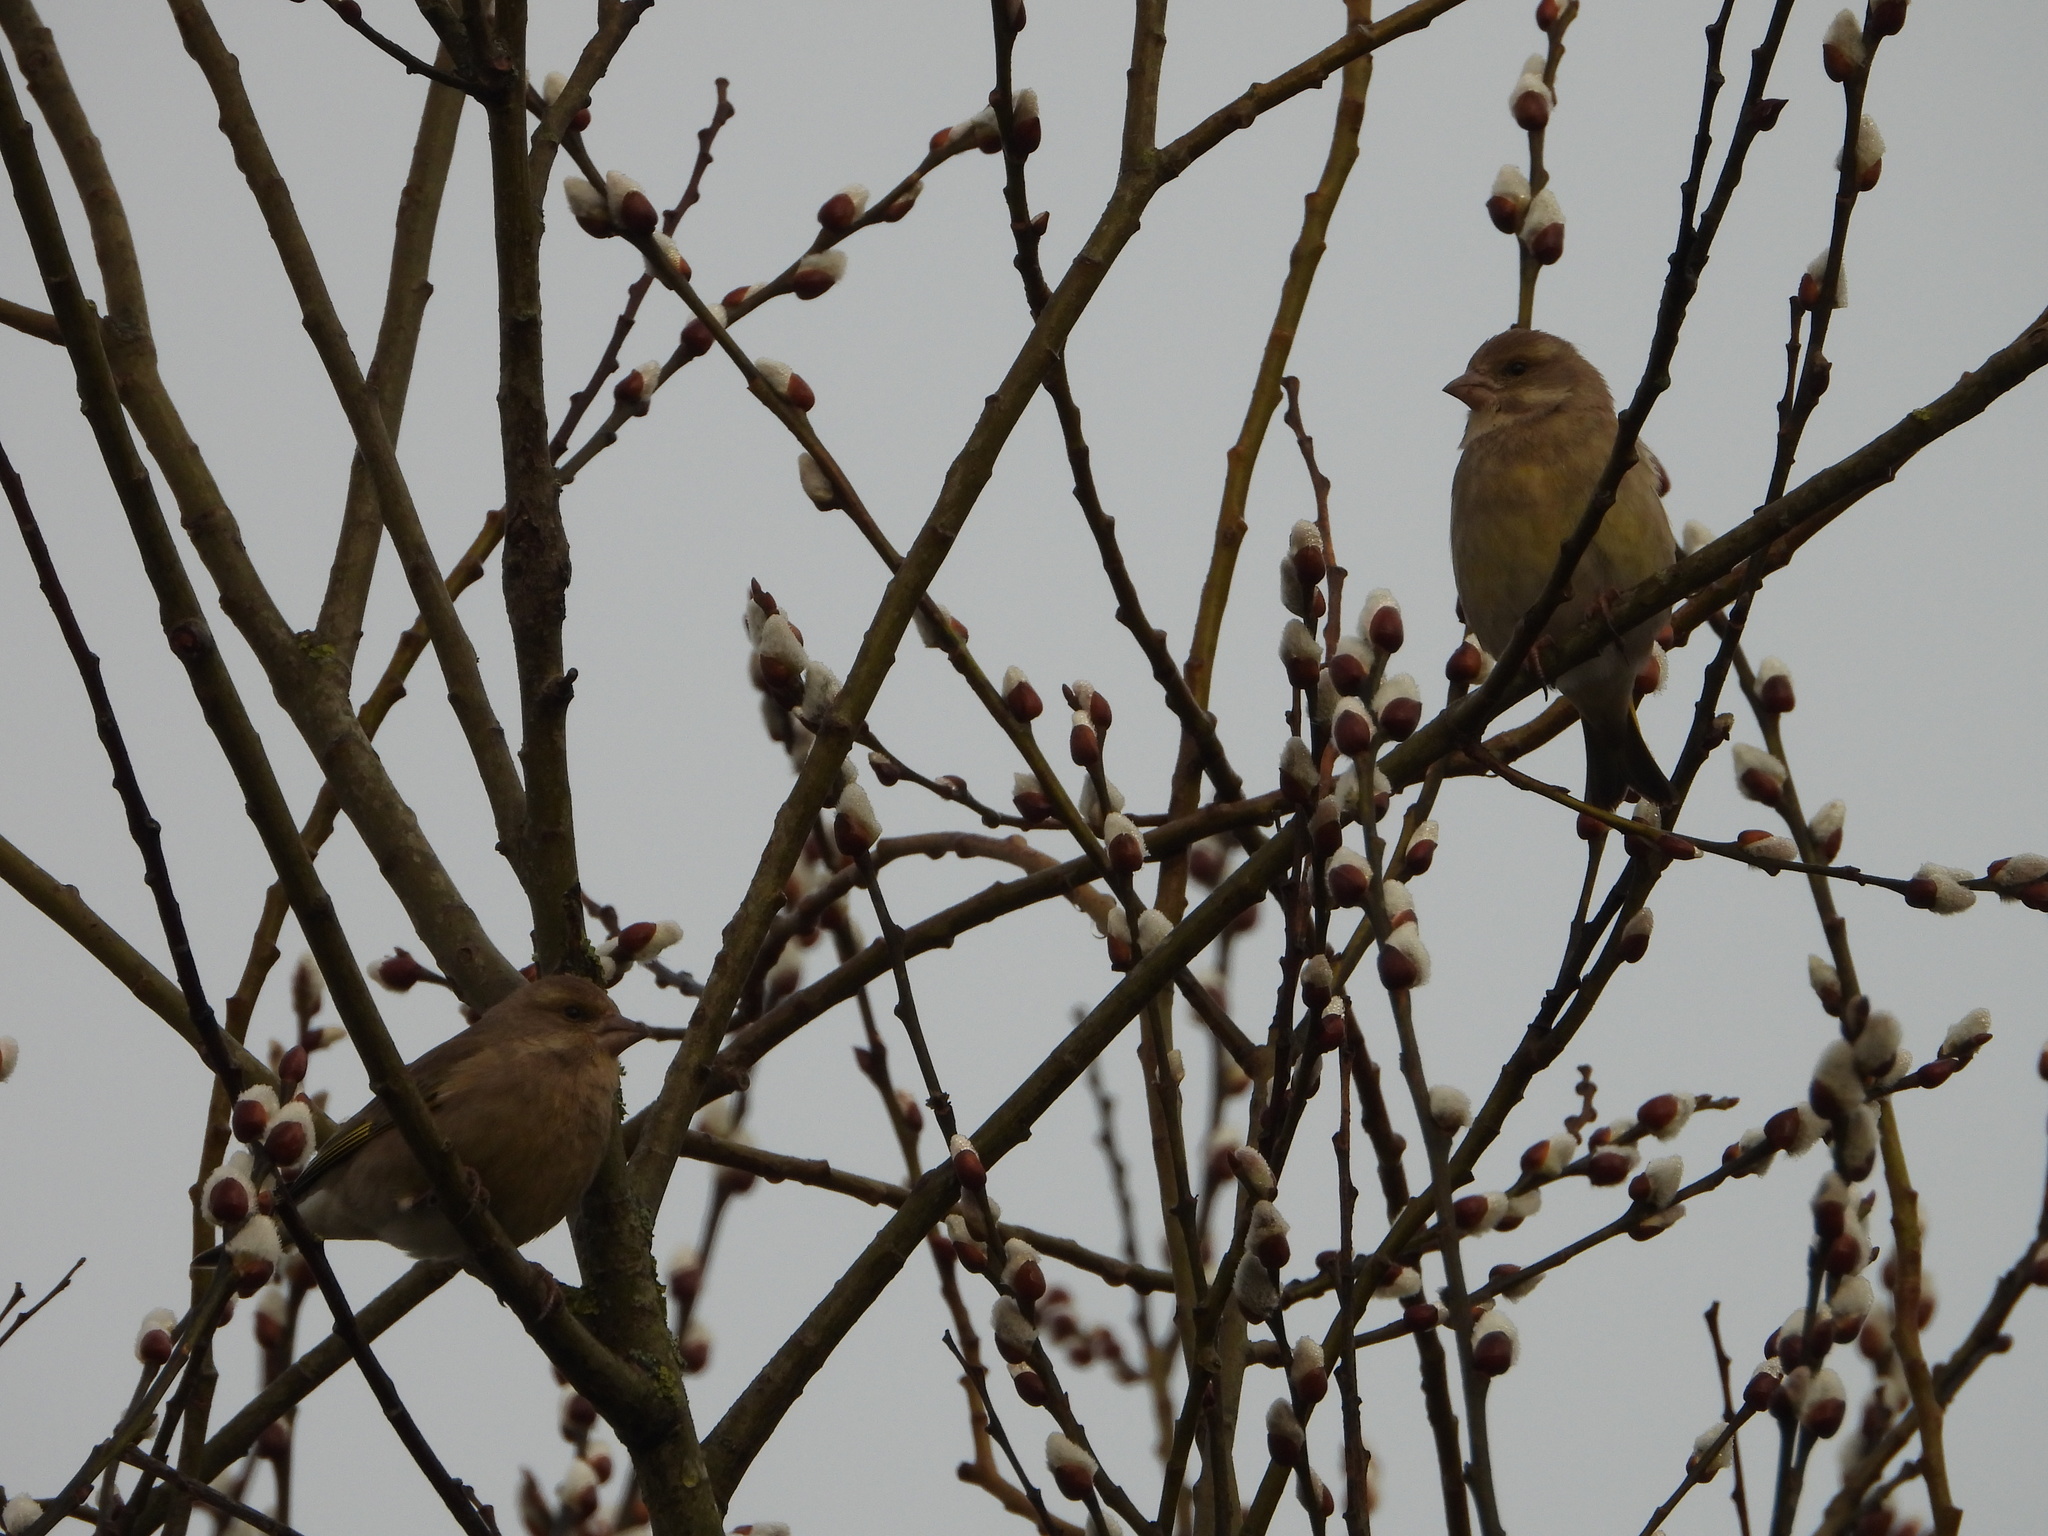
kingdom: Plantae
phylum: Tracheophyta
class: Liliopsida
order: Poales
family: Poaceae
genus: Chloris
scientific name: Chloris chloris
